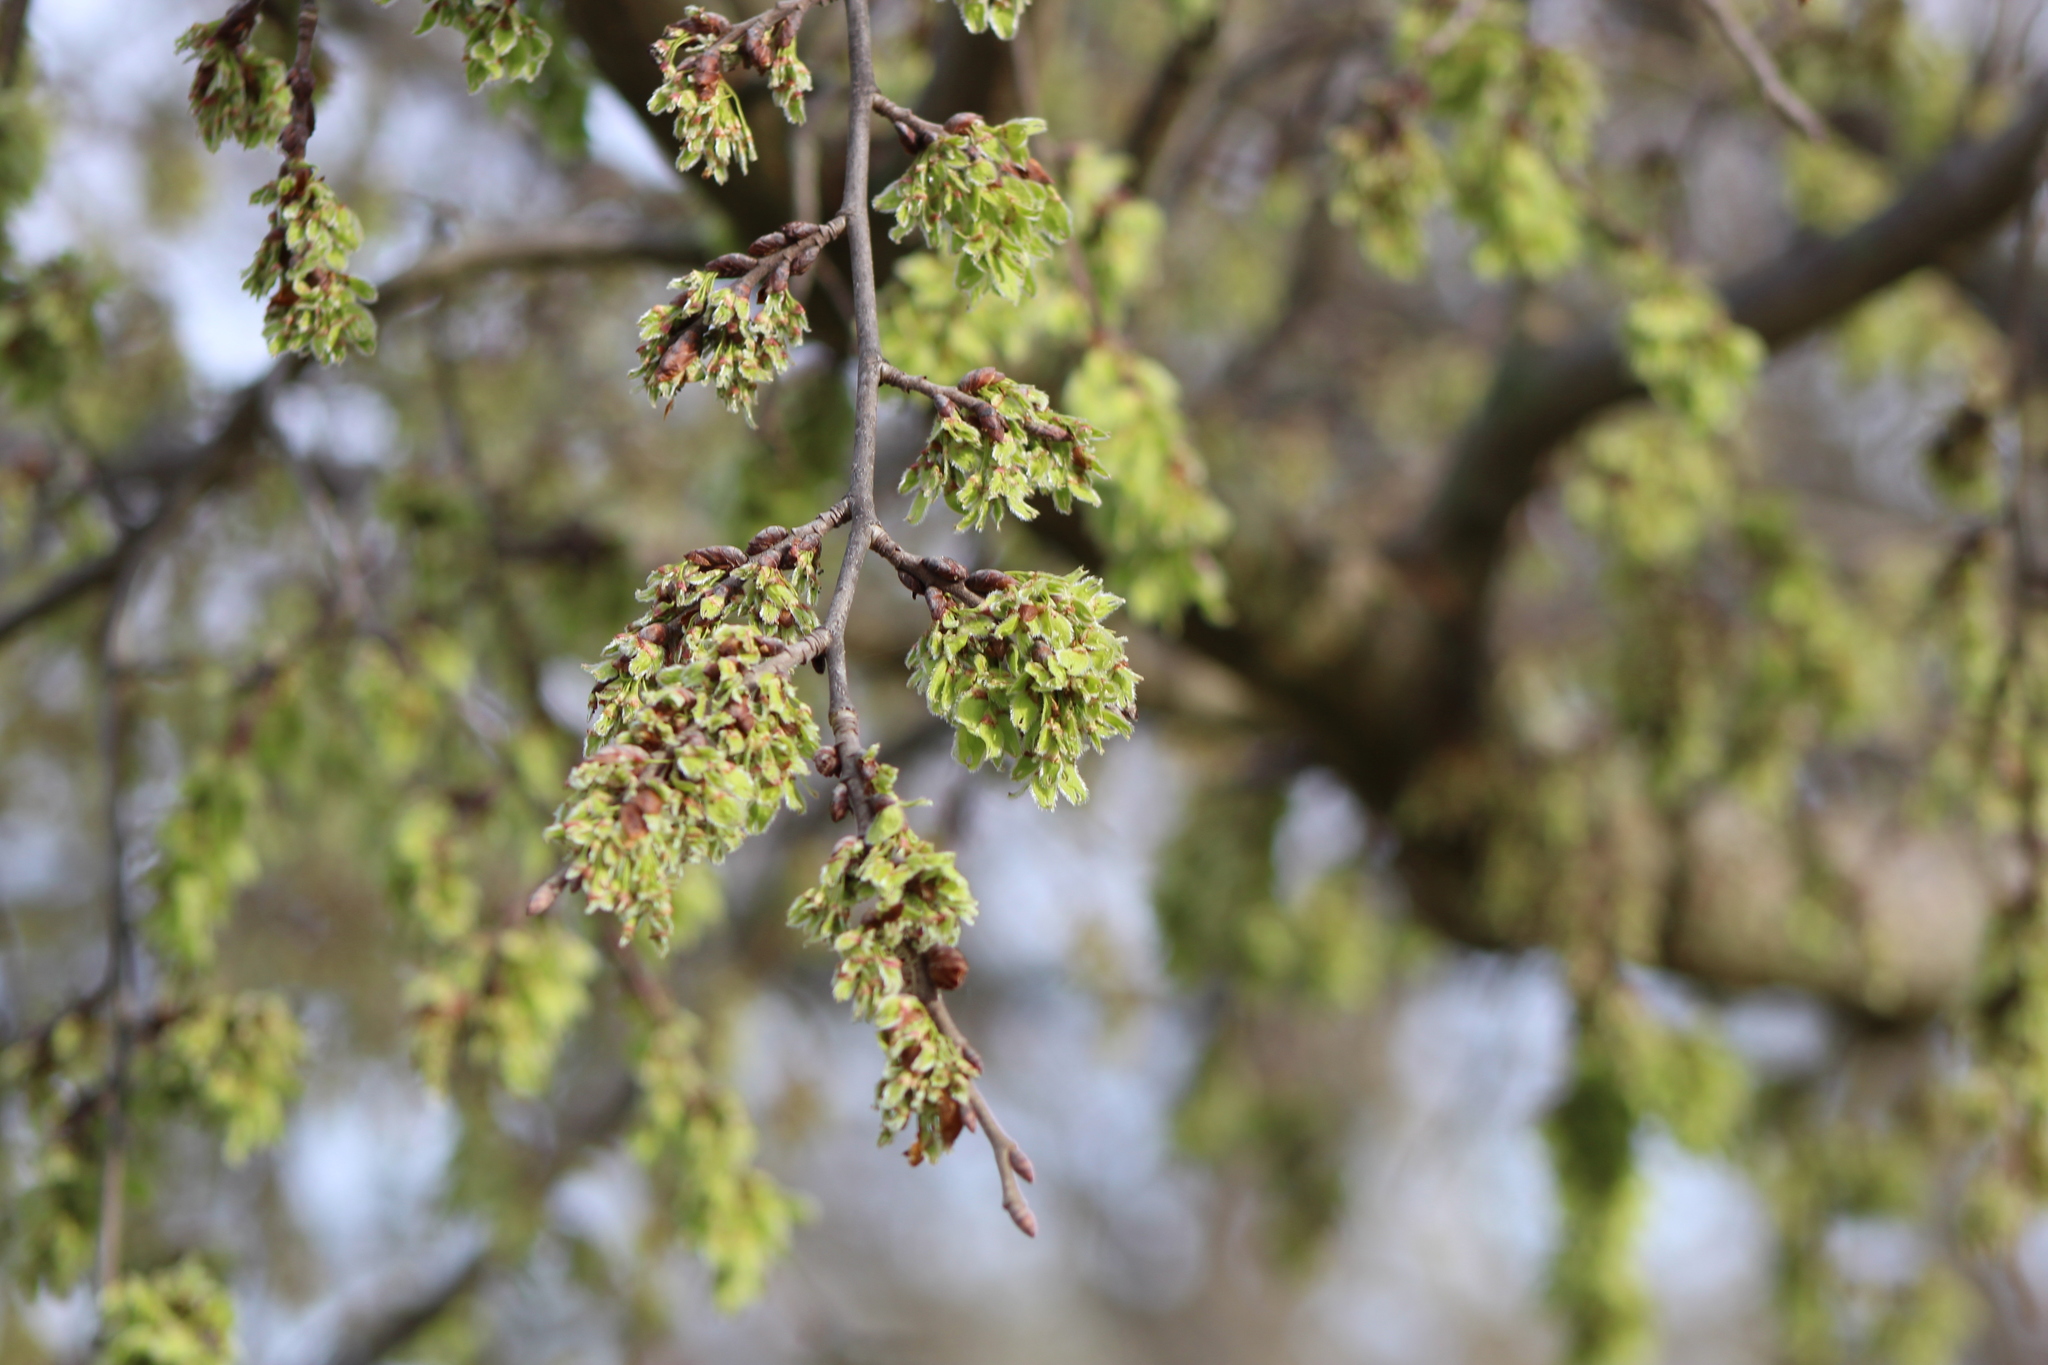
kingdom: Plantae
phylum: Tracheophyta
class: Magnoliopsida
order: Rosales
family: Ulmaceae
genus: Ulmus
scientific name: Ulmus americana
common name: American elm
